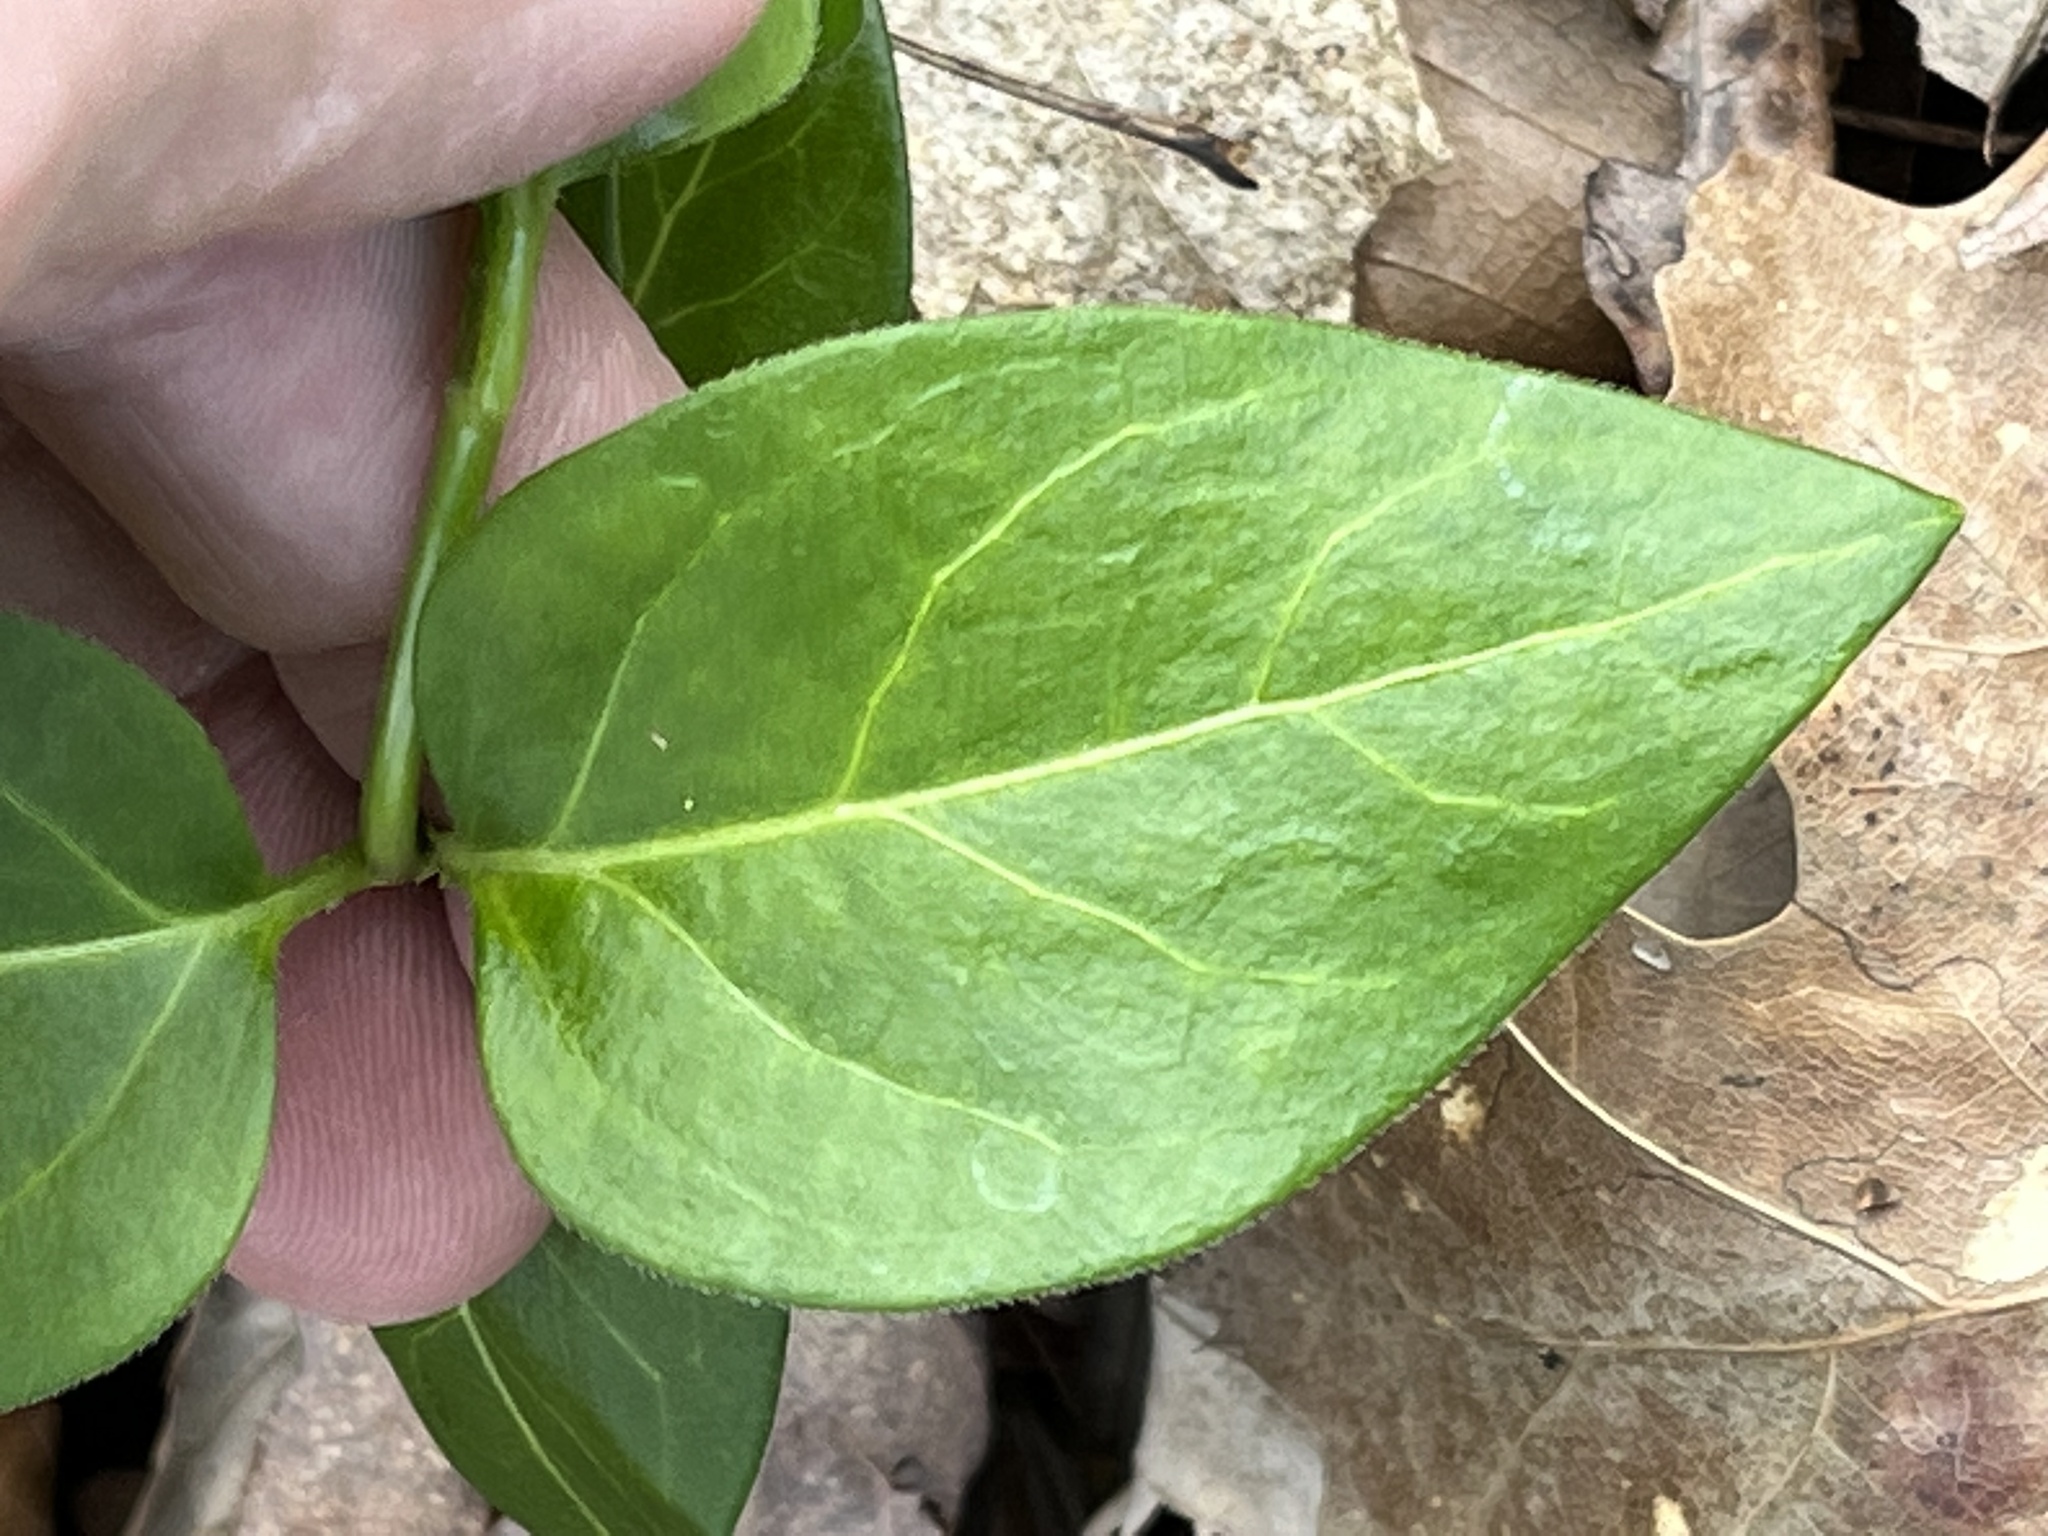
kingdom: Plantae
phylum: Tracheophyta
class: Magnoliopsida
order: Gentianales
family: Apocynaceae
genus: Vinca
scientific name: Vinca major
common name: Greater periwinkle
